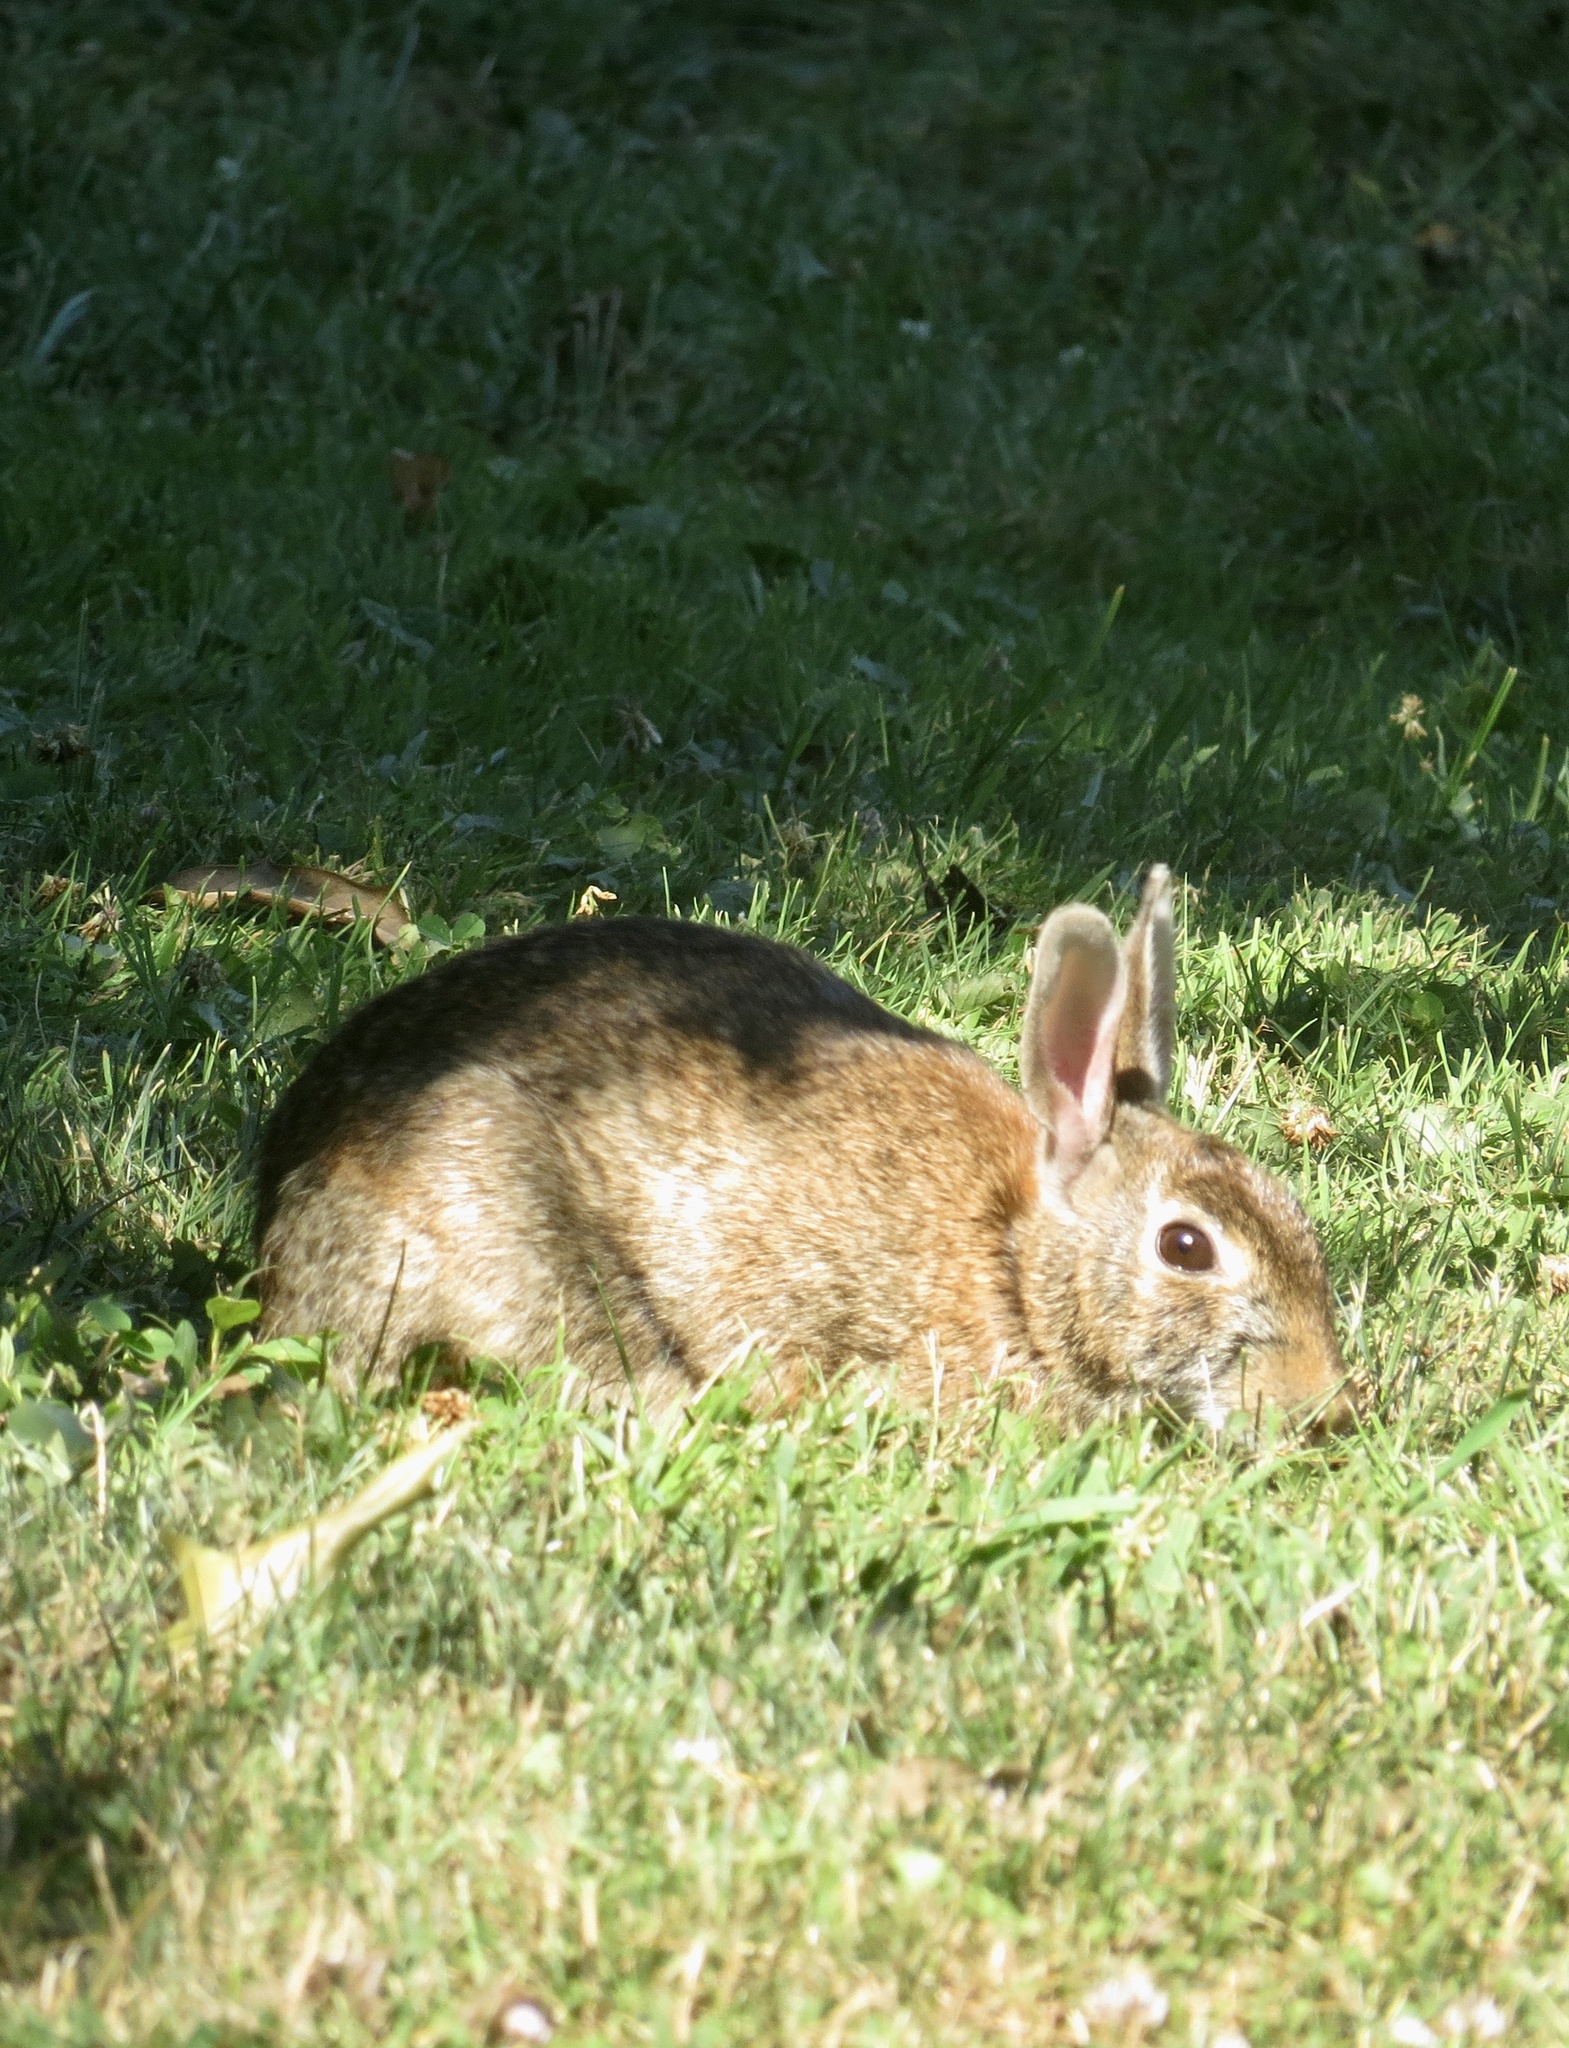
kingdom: Animalia
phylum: Chordata
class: Mammalia
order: Lagomorpha
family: Leporidae
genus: Sylvilagus
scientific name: Sylvilagus floridanus
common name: Eastern cottontail
